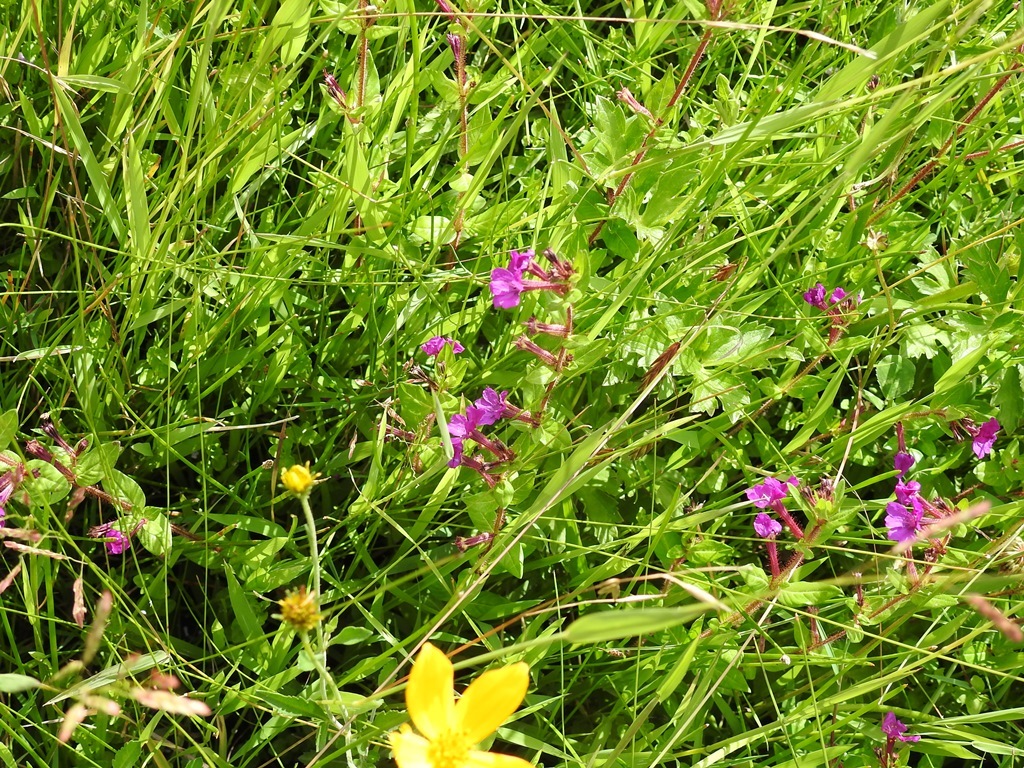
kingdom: Plantae
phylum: Tracheophyta
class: Magnoliopsida
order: Myrtales
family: Lythraceae
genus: Cuphea
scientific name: Cuphea aequipetala
